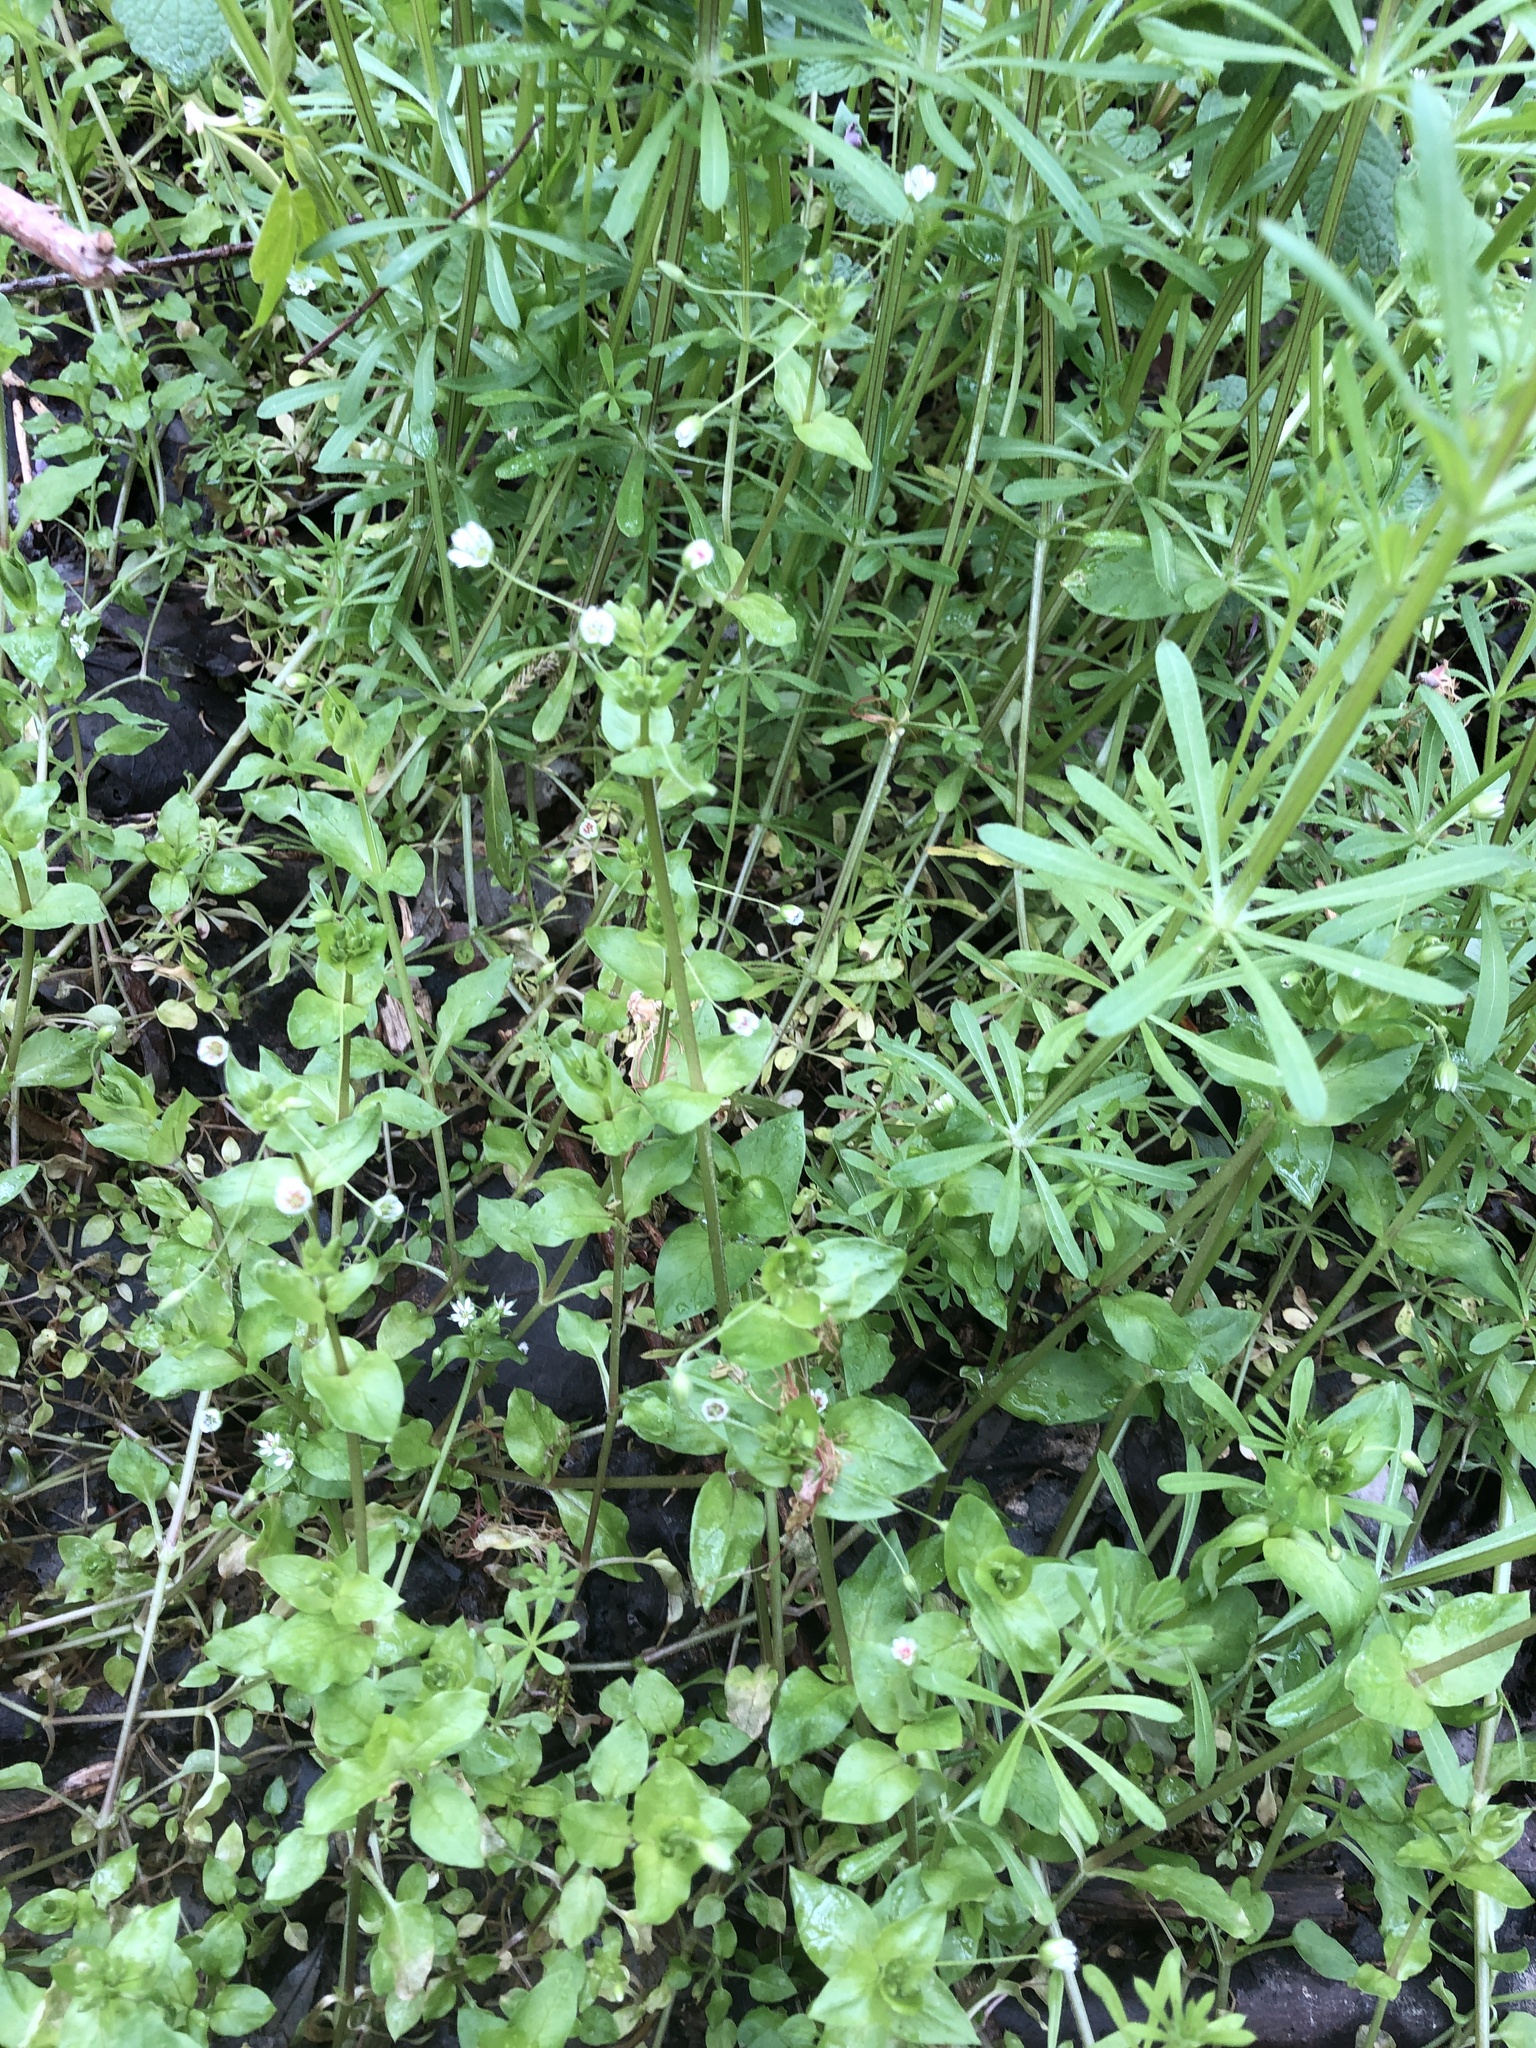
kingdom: Plantae
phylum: Tracheophyta
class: Magnoliopsida
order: Caryophyllales
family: Caryophyllaceae
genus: Stellaria
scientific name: Stellaria neglecta
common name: Greater chickweed
